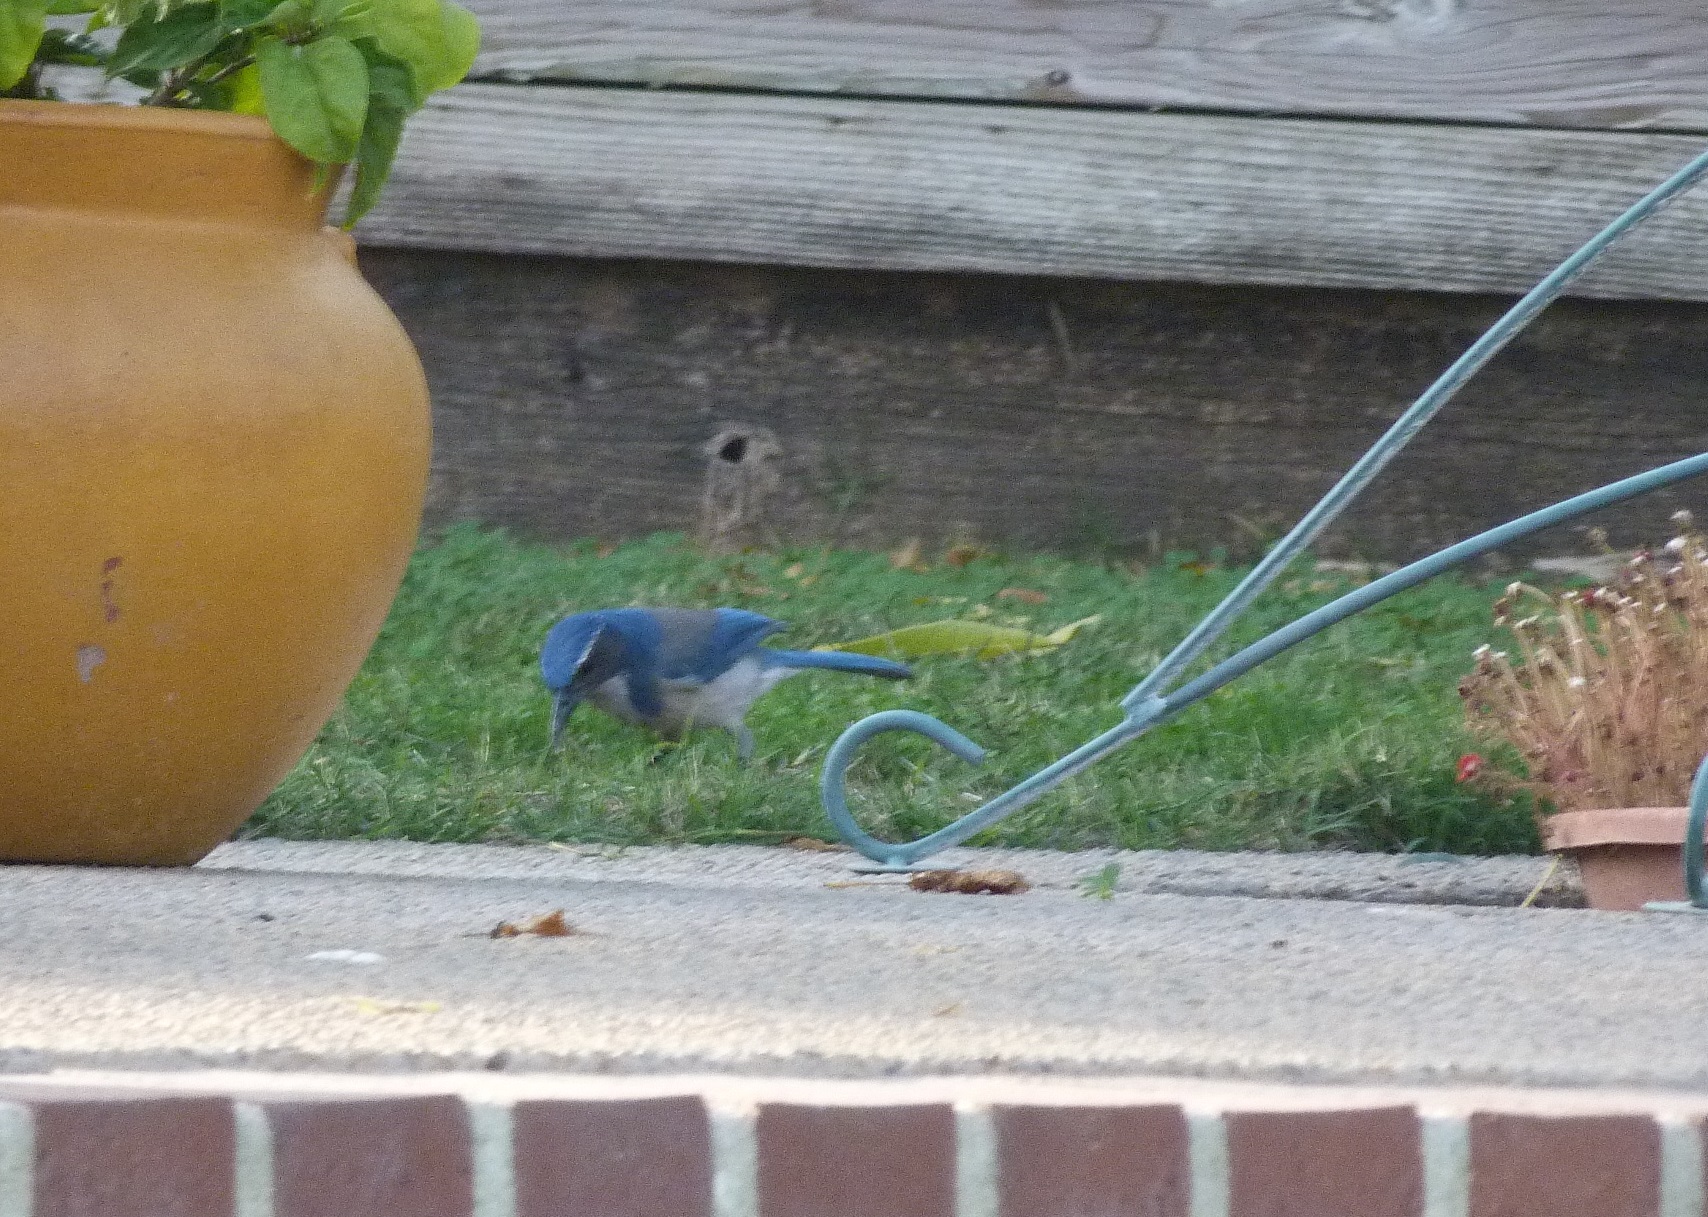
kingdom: Animalia
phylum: Chordata
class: Aves
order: Passeriformes
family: Corvidae
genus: Aphelocoma
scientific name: Aphelocoma californica
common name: California scrub-jay
